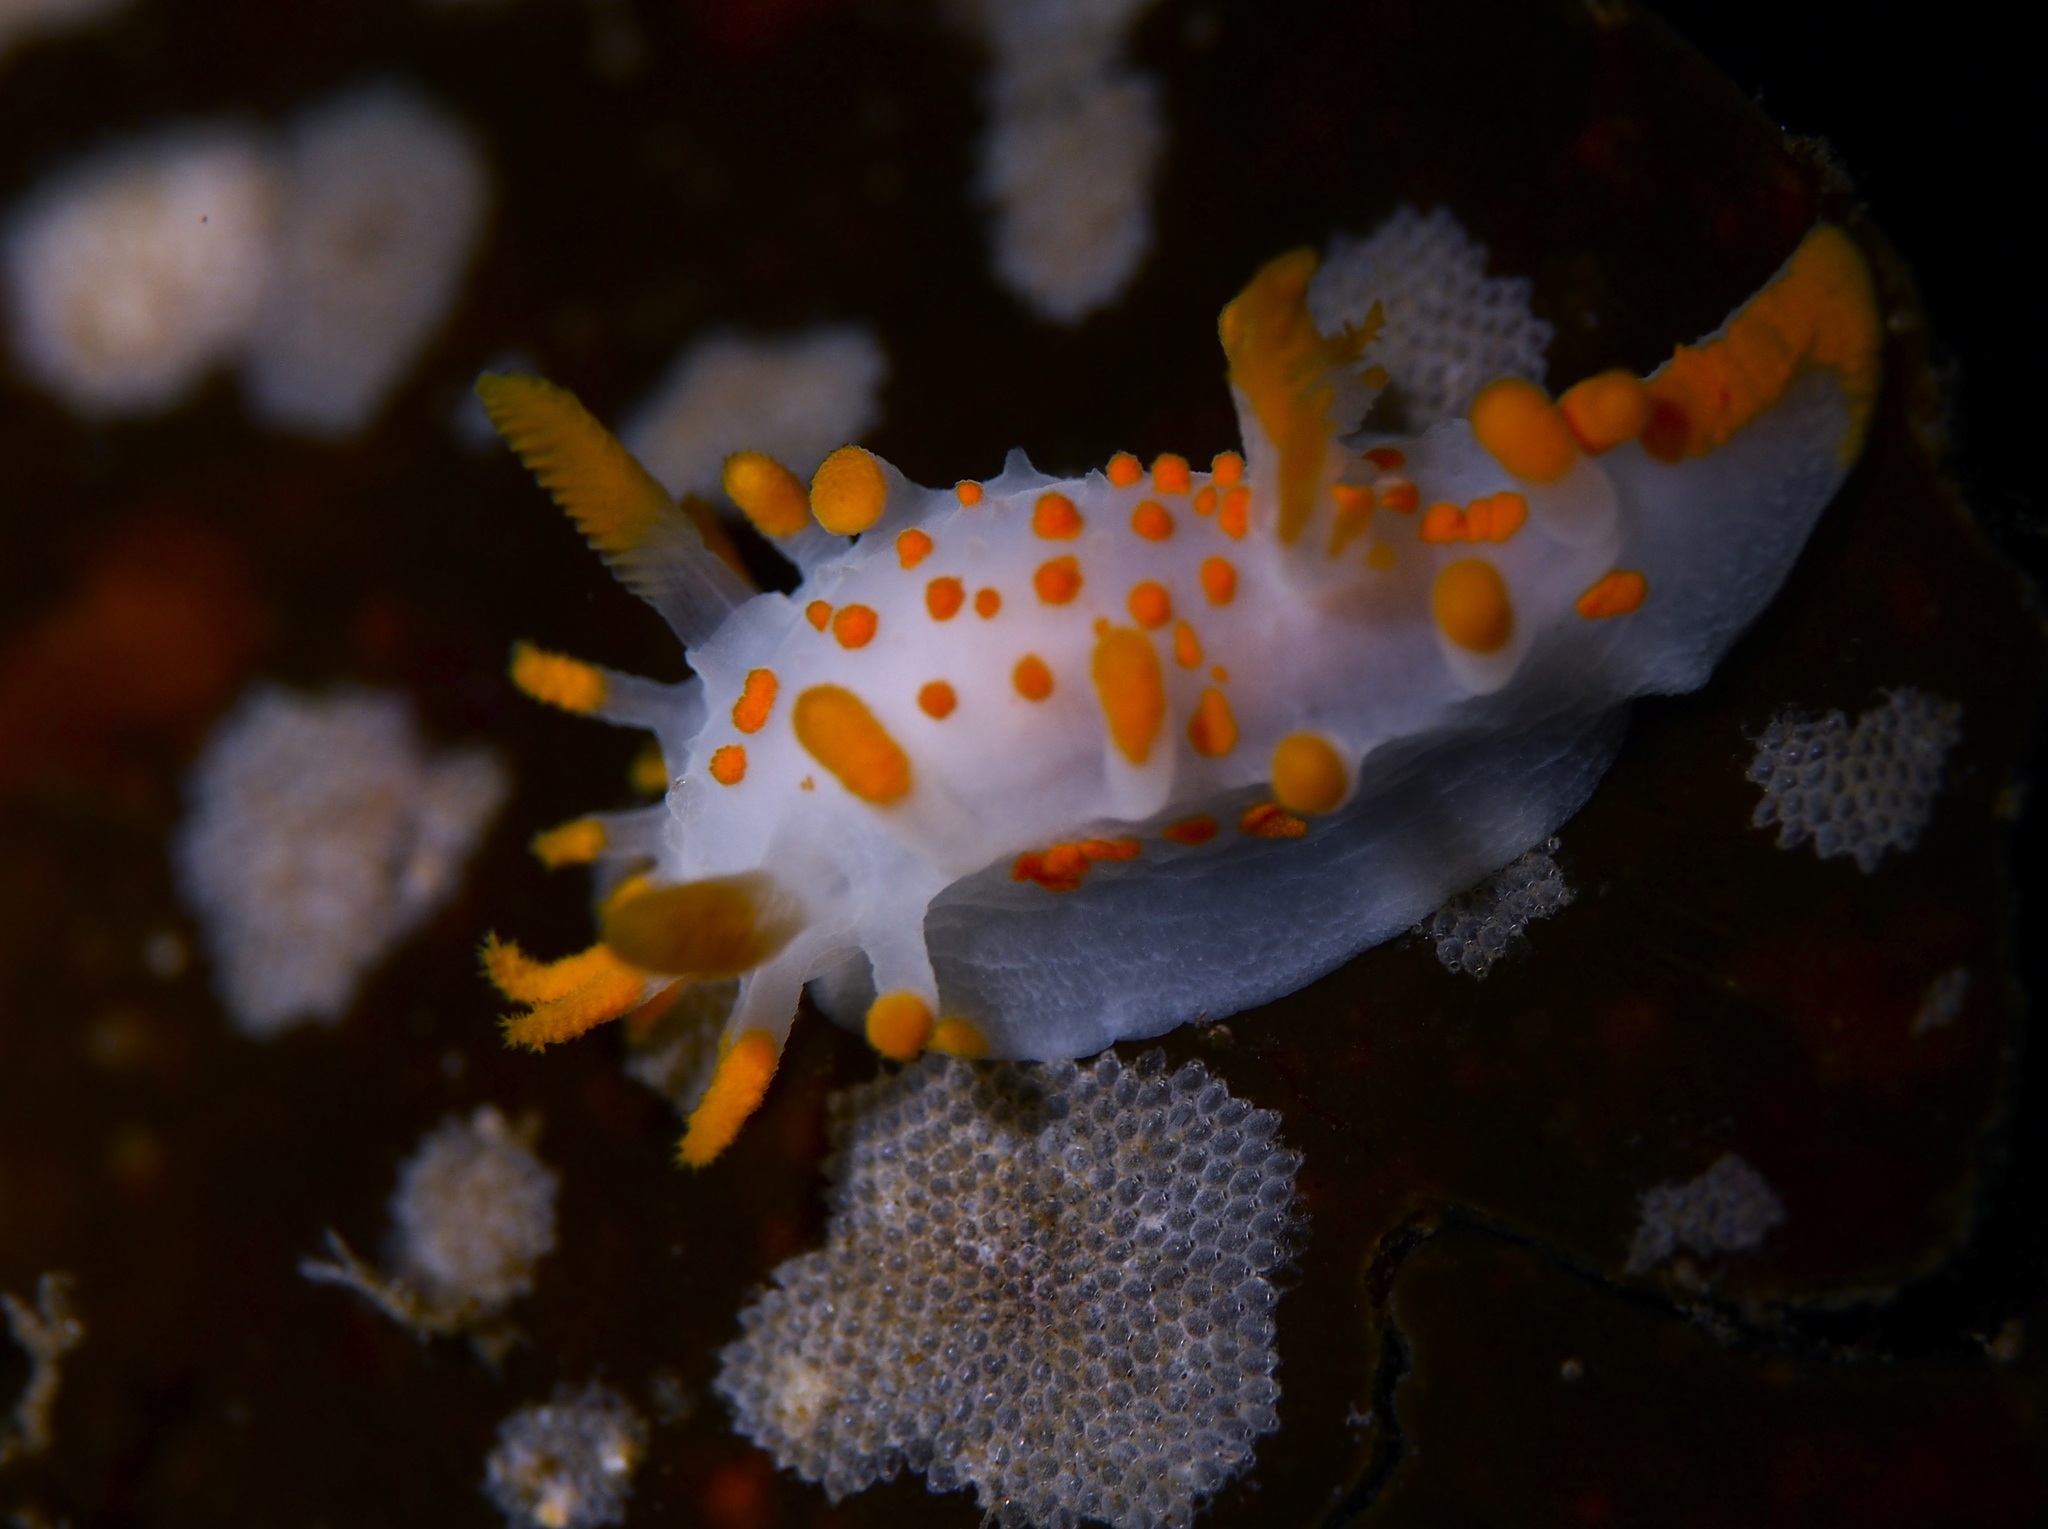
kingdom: Animalia
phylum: Mollusca
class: Gastropoda
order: Nudibranchia
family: Polyceridae
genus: Limacia
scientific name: Limacia clavigera
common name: Orange-clubbed sea slug
